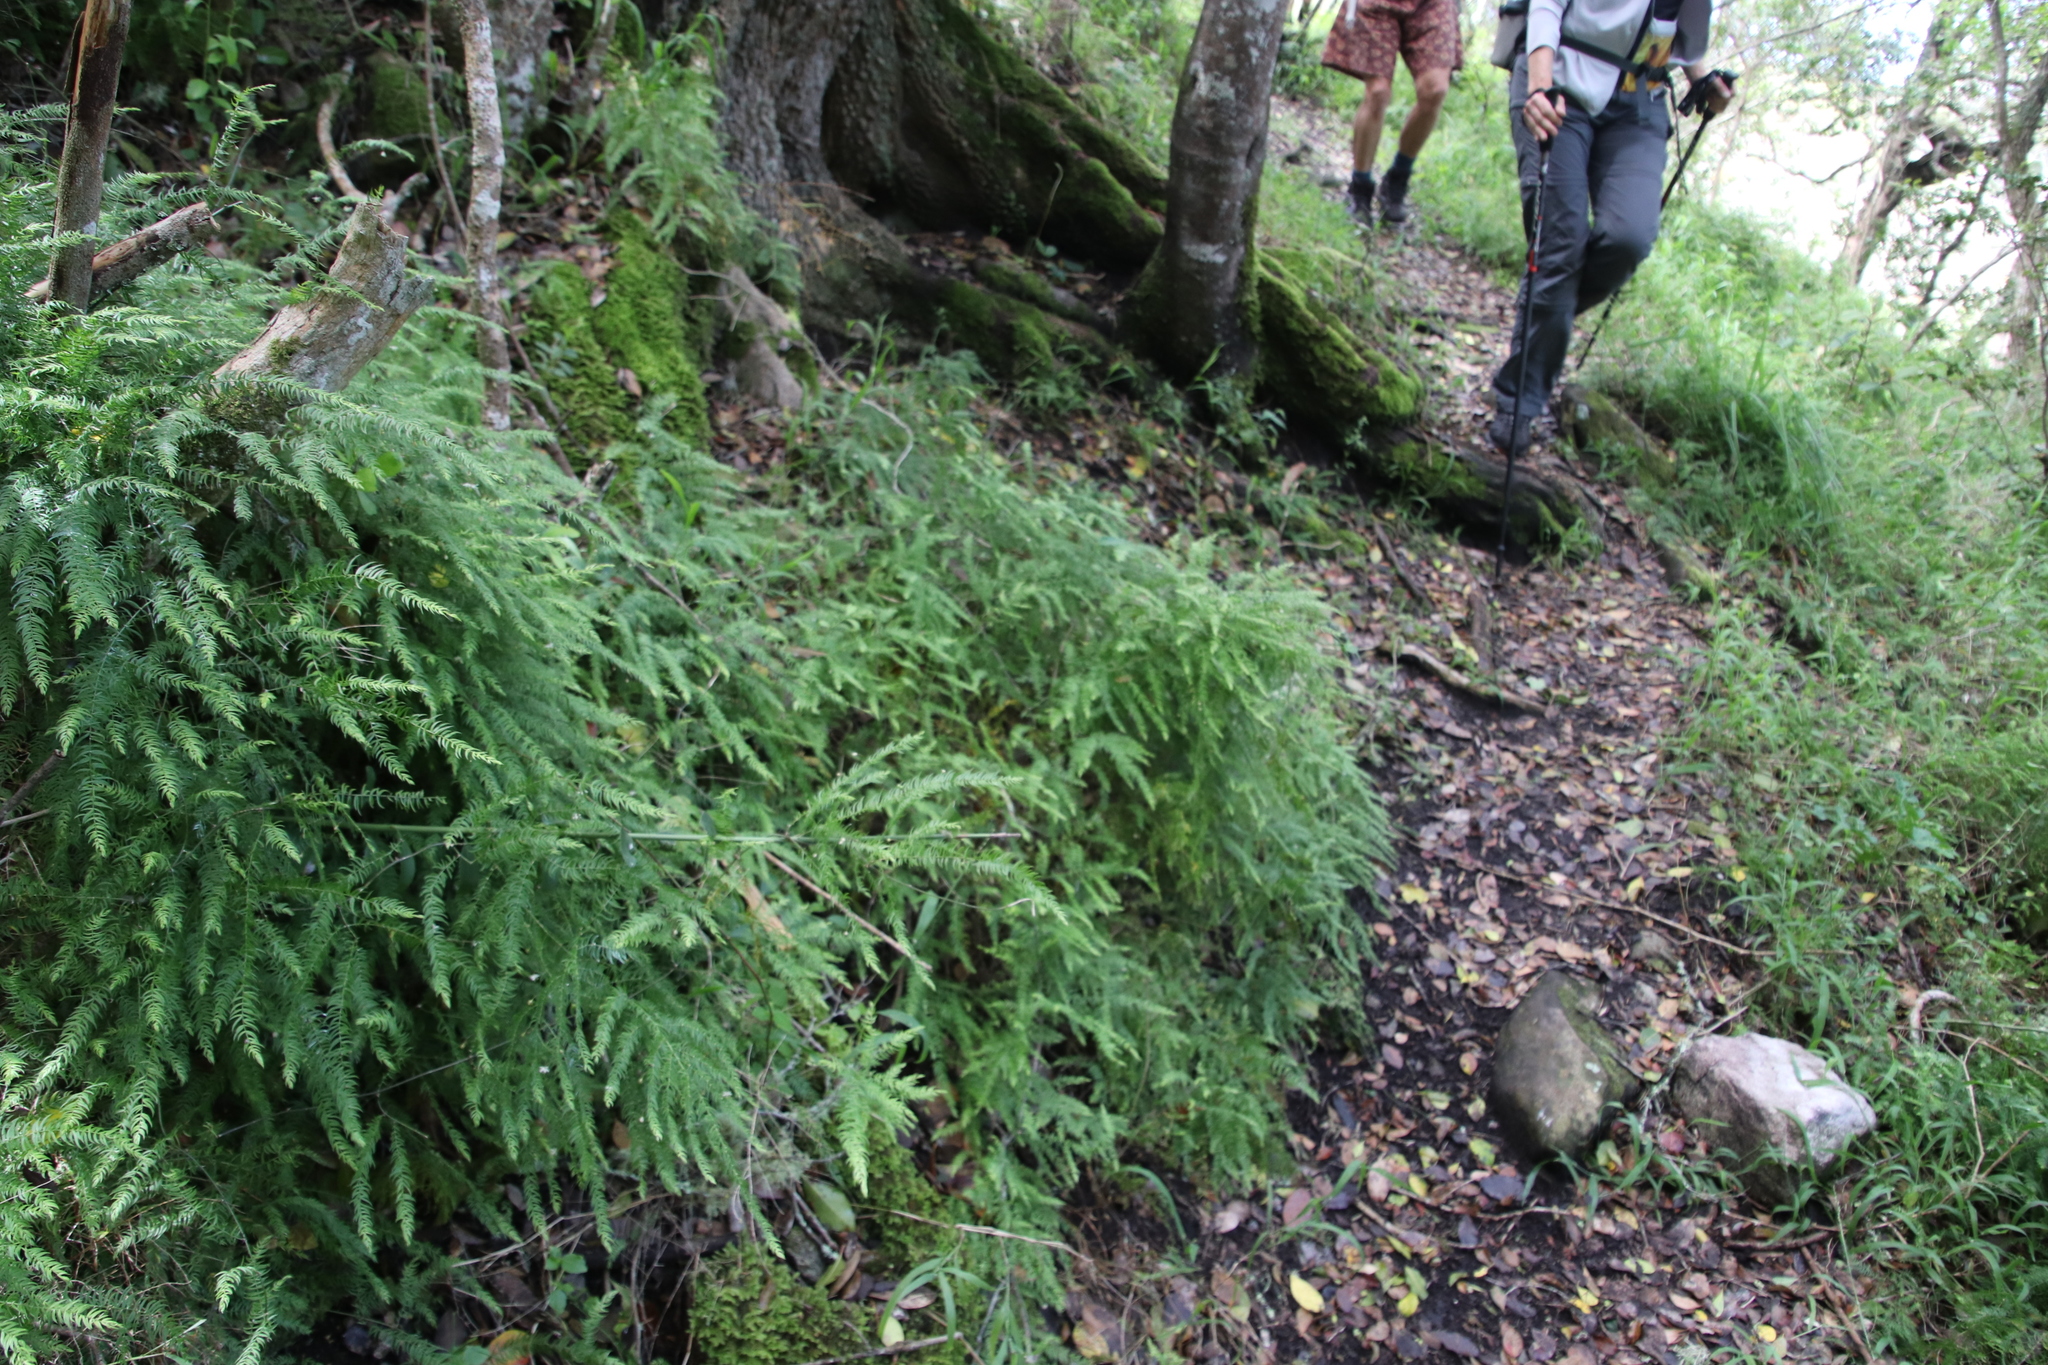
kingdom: Plantae
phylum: Tracheophyta
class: Liliopsida
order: Asparagales
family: Asparagaceae
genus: Asparagus
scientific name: Asparagus scandens
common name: Asparagus-fern
